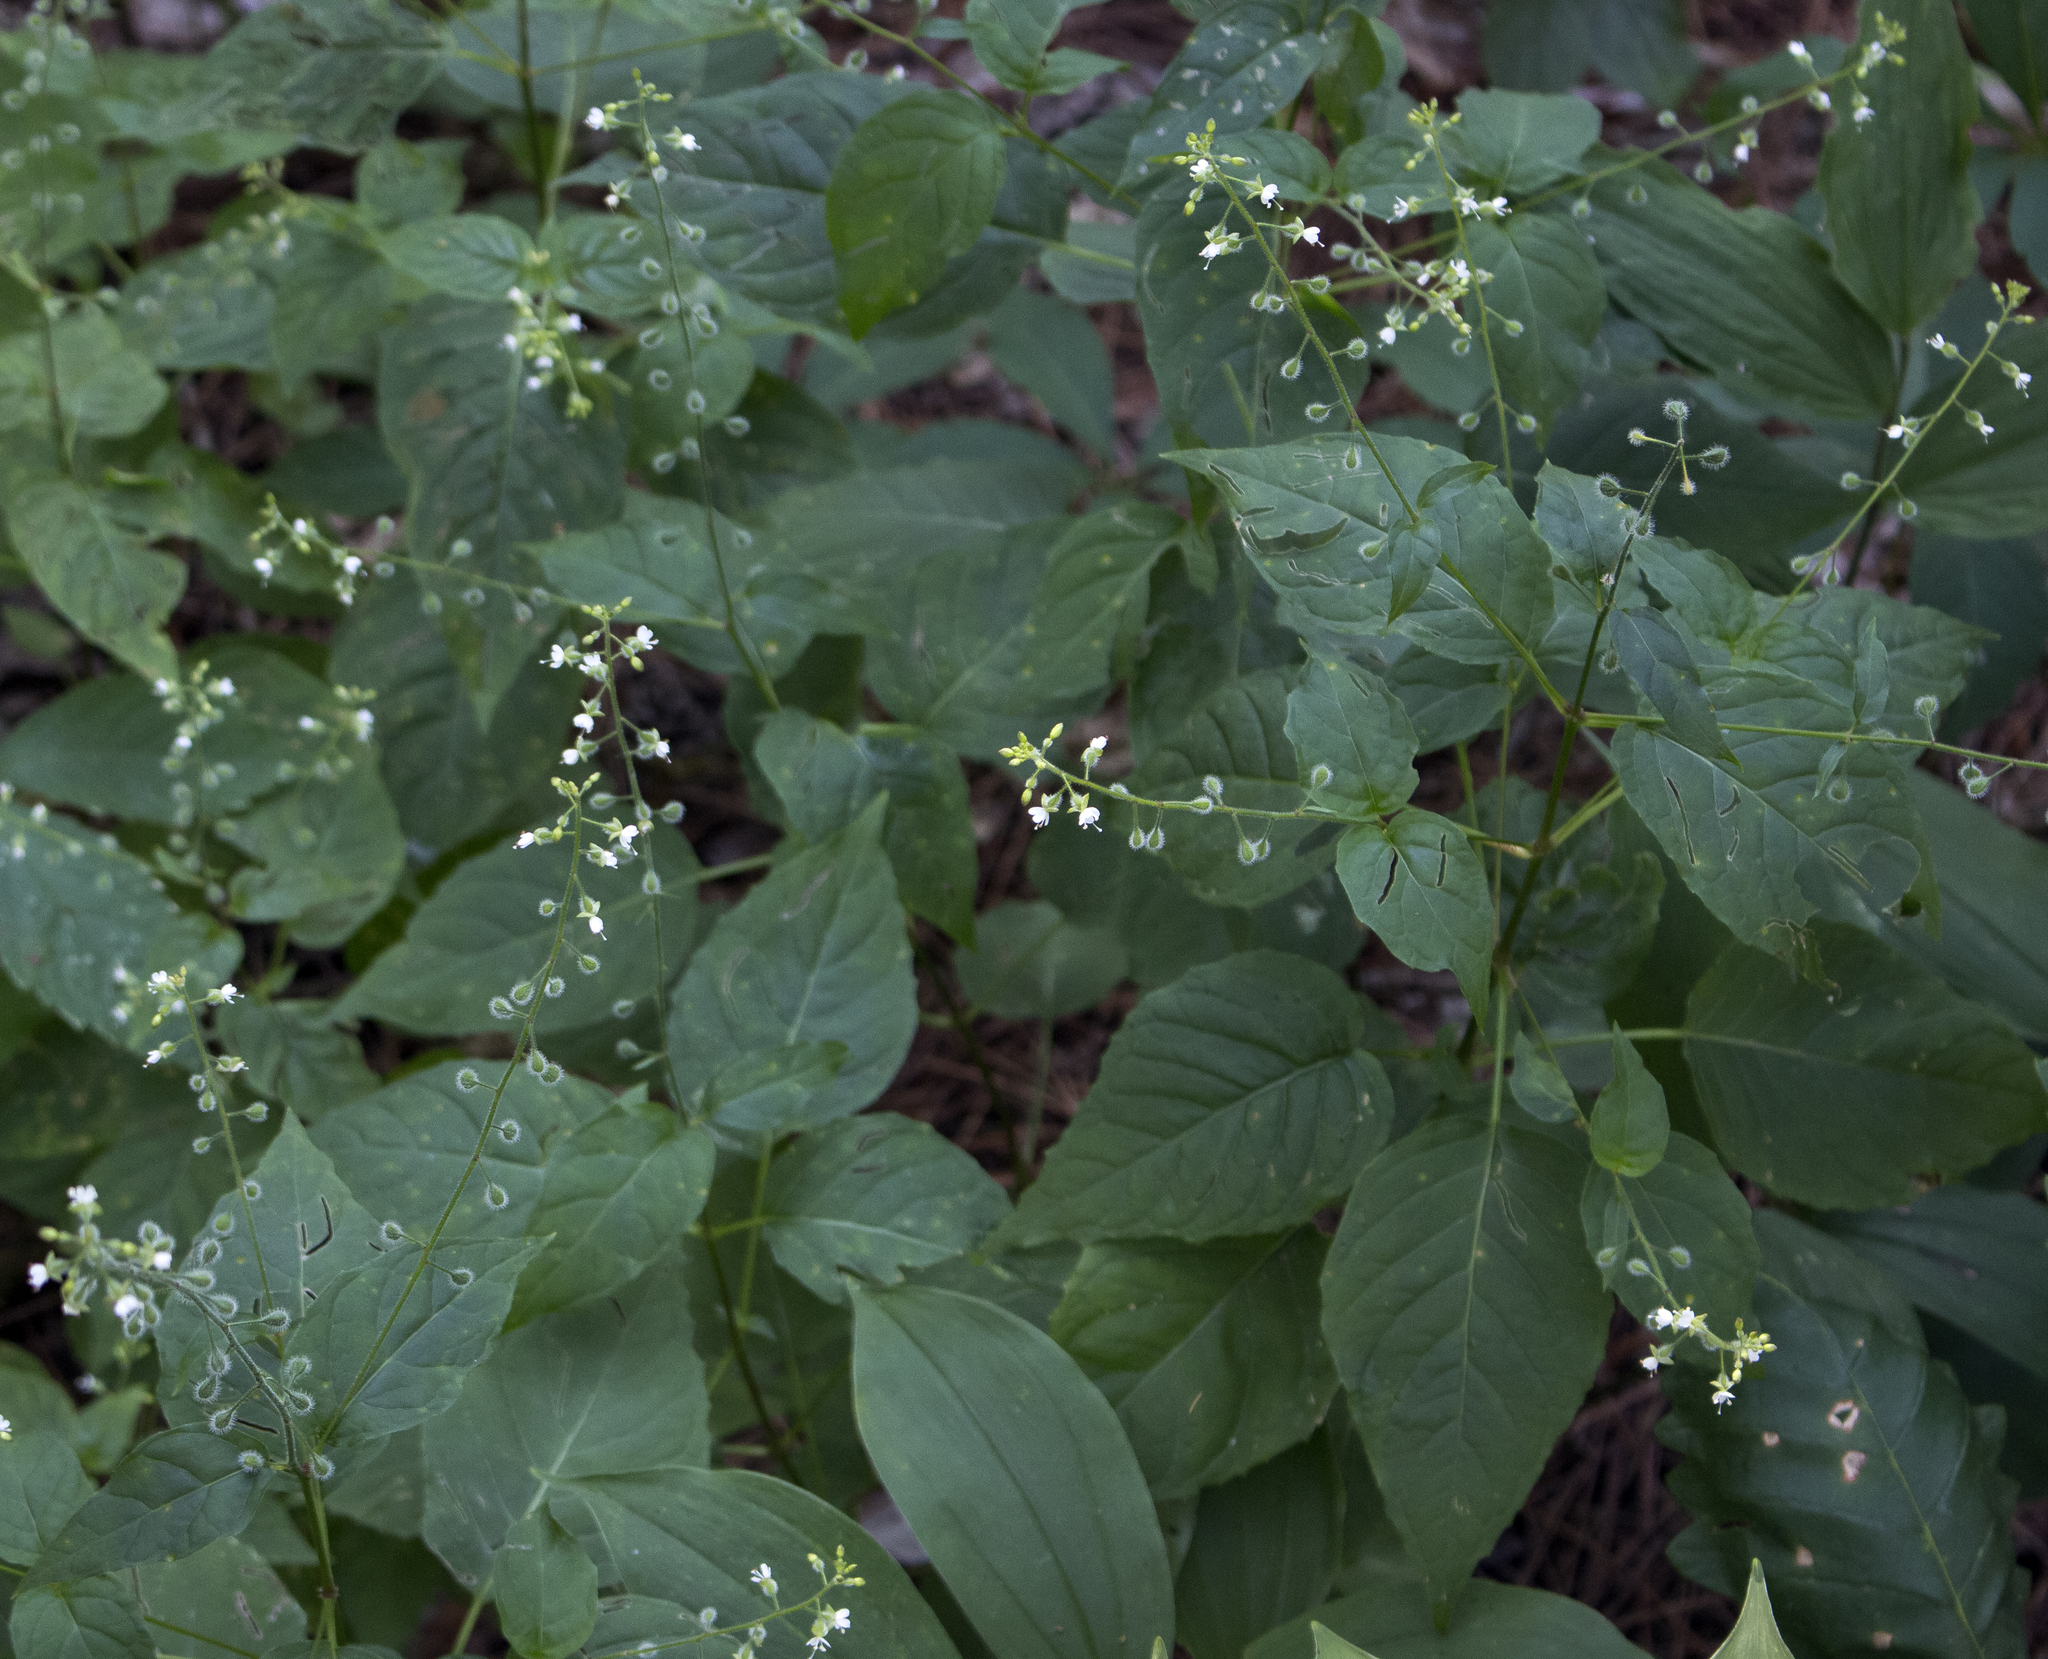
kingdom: Plantae
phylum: Tracheophyta
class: Magnoliopsida
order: Myrtales
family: Onagraceae
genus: Circaea
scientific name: Circaea canadensis
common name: Broad-leaved enchanter's nightshade
